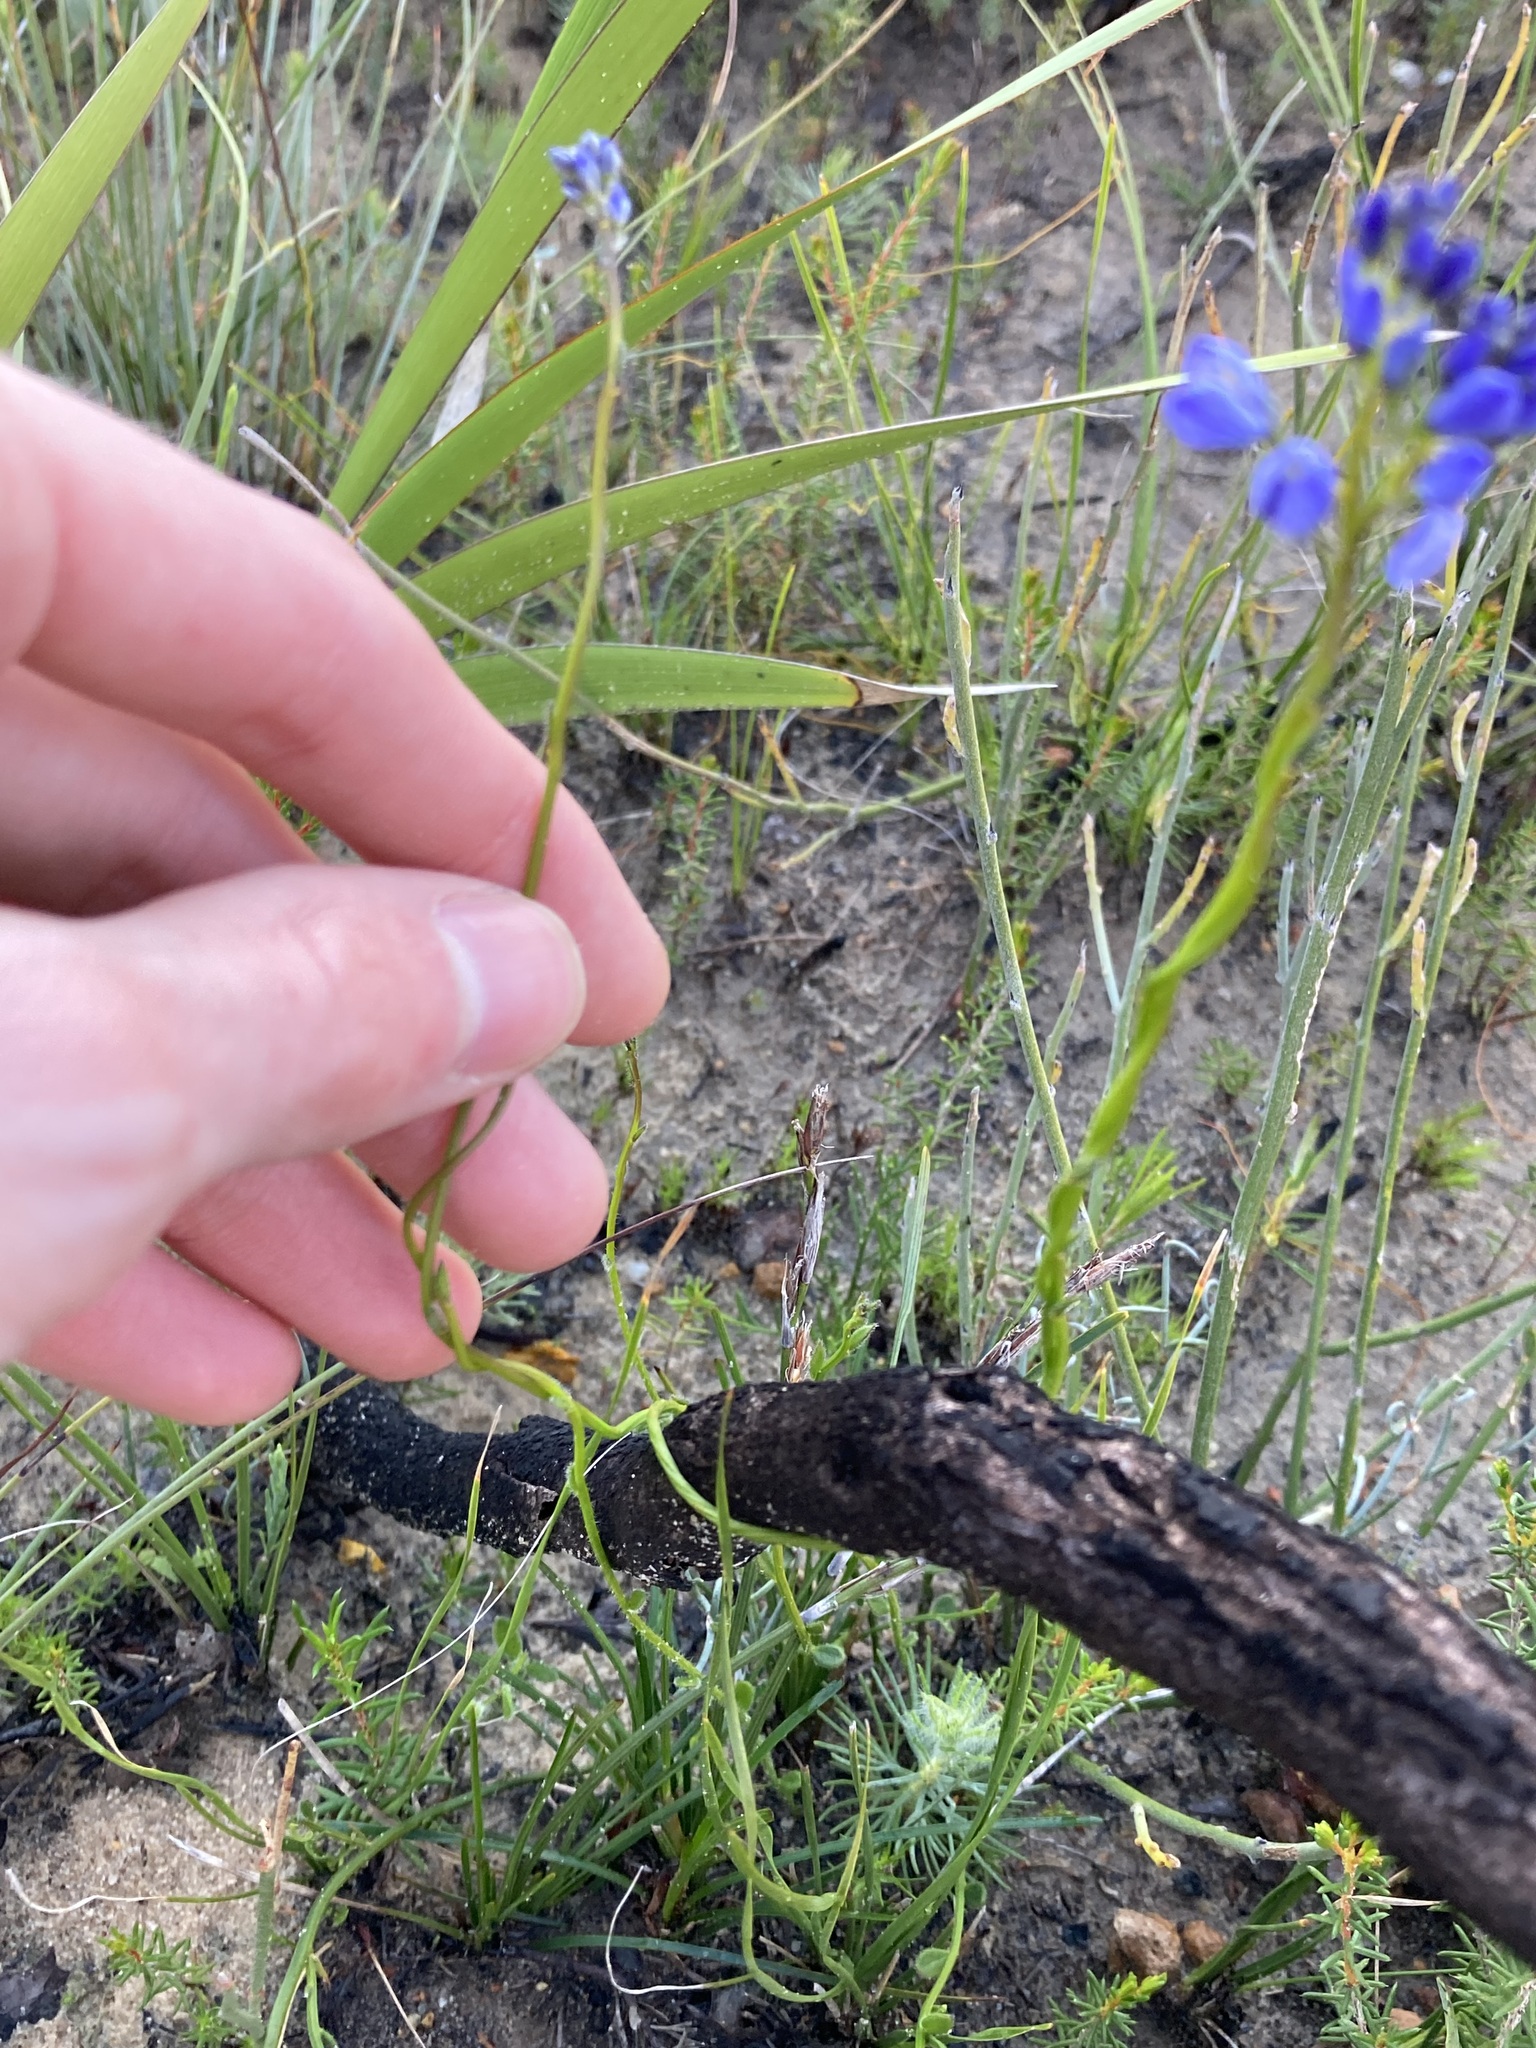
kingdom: Plantae
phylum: Tracheophyta
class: Magnoliopsida
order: Fabales
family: Polygalaceae
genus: Comesperma
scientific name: Comesperma volubile
